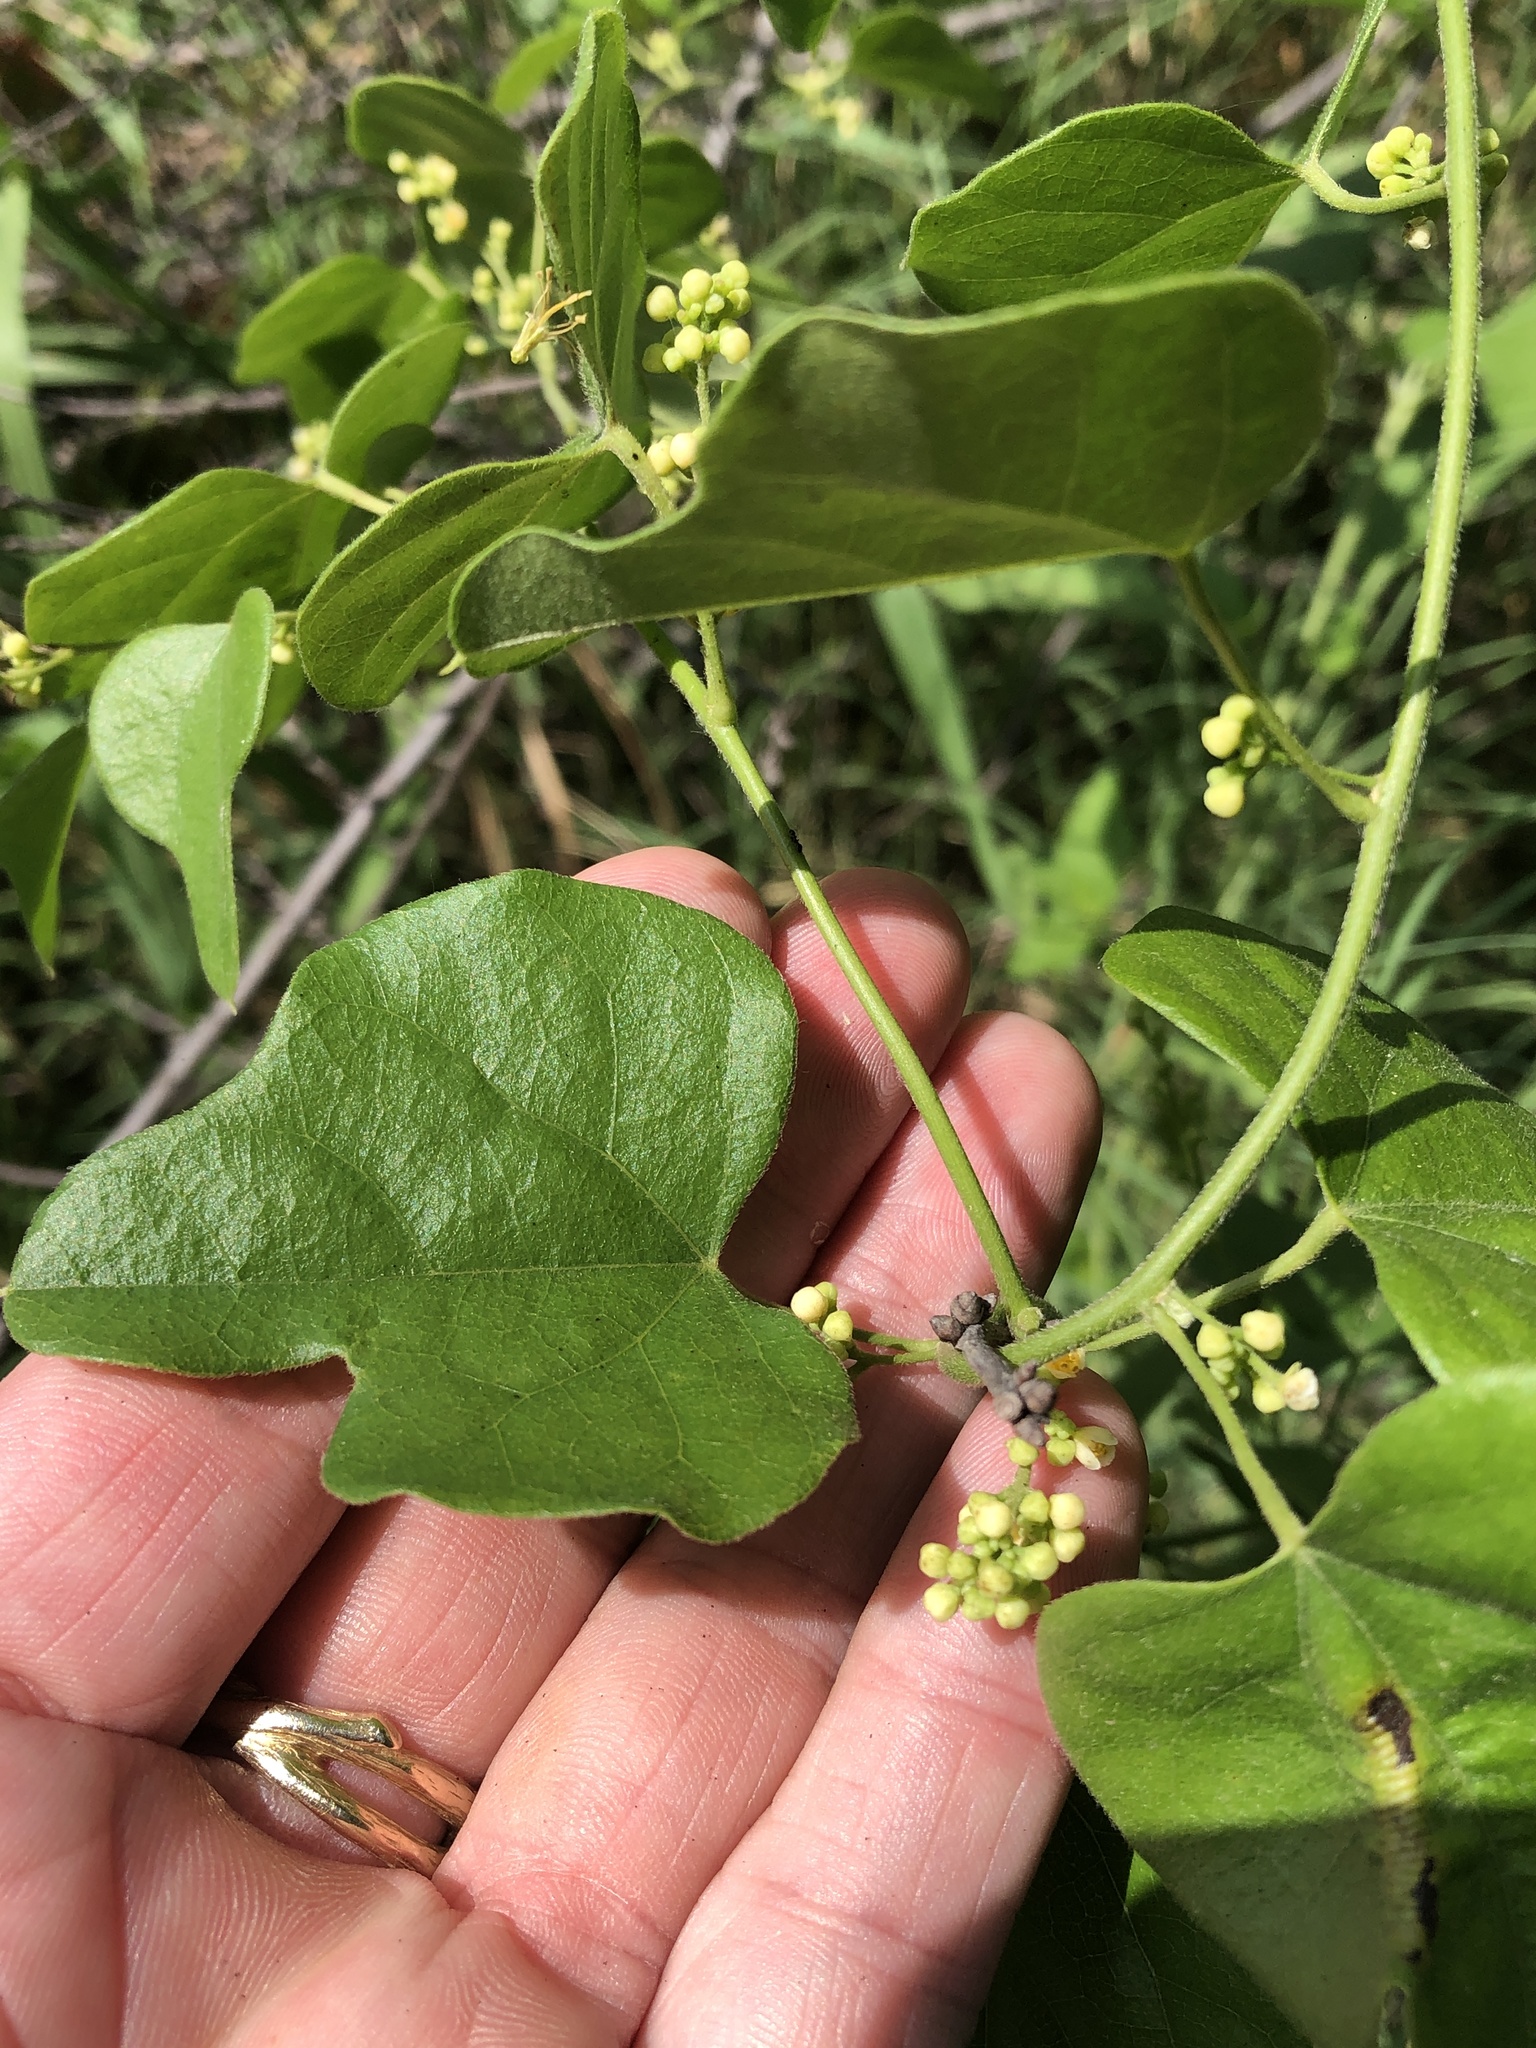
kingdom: Plantae
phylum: Tracheophyta
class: Magnoliopsida
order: Ranunculales
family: Menispermaceae
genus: Cocculus
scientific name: Cocculus carolinus
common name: Carolina moonseed
